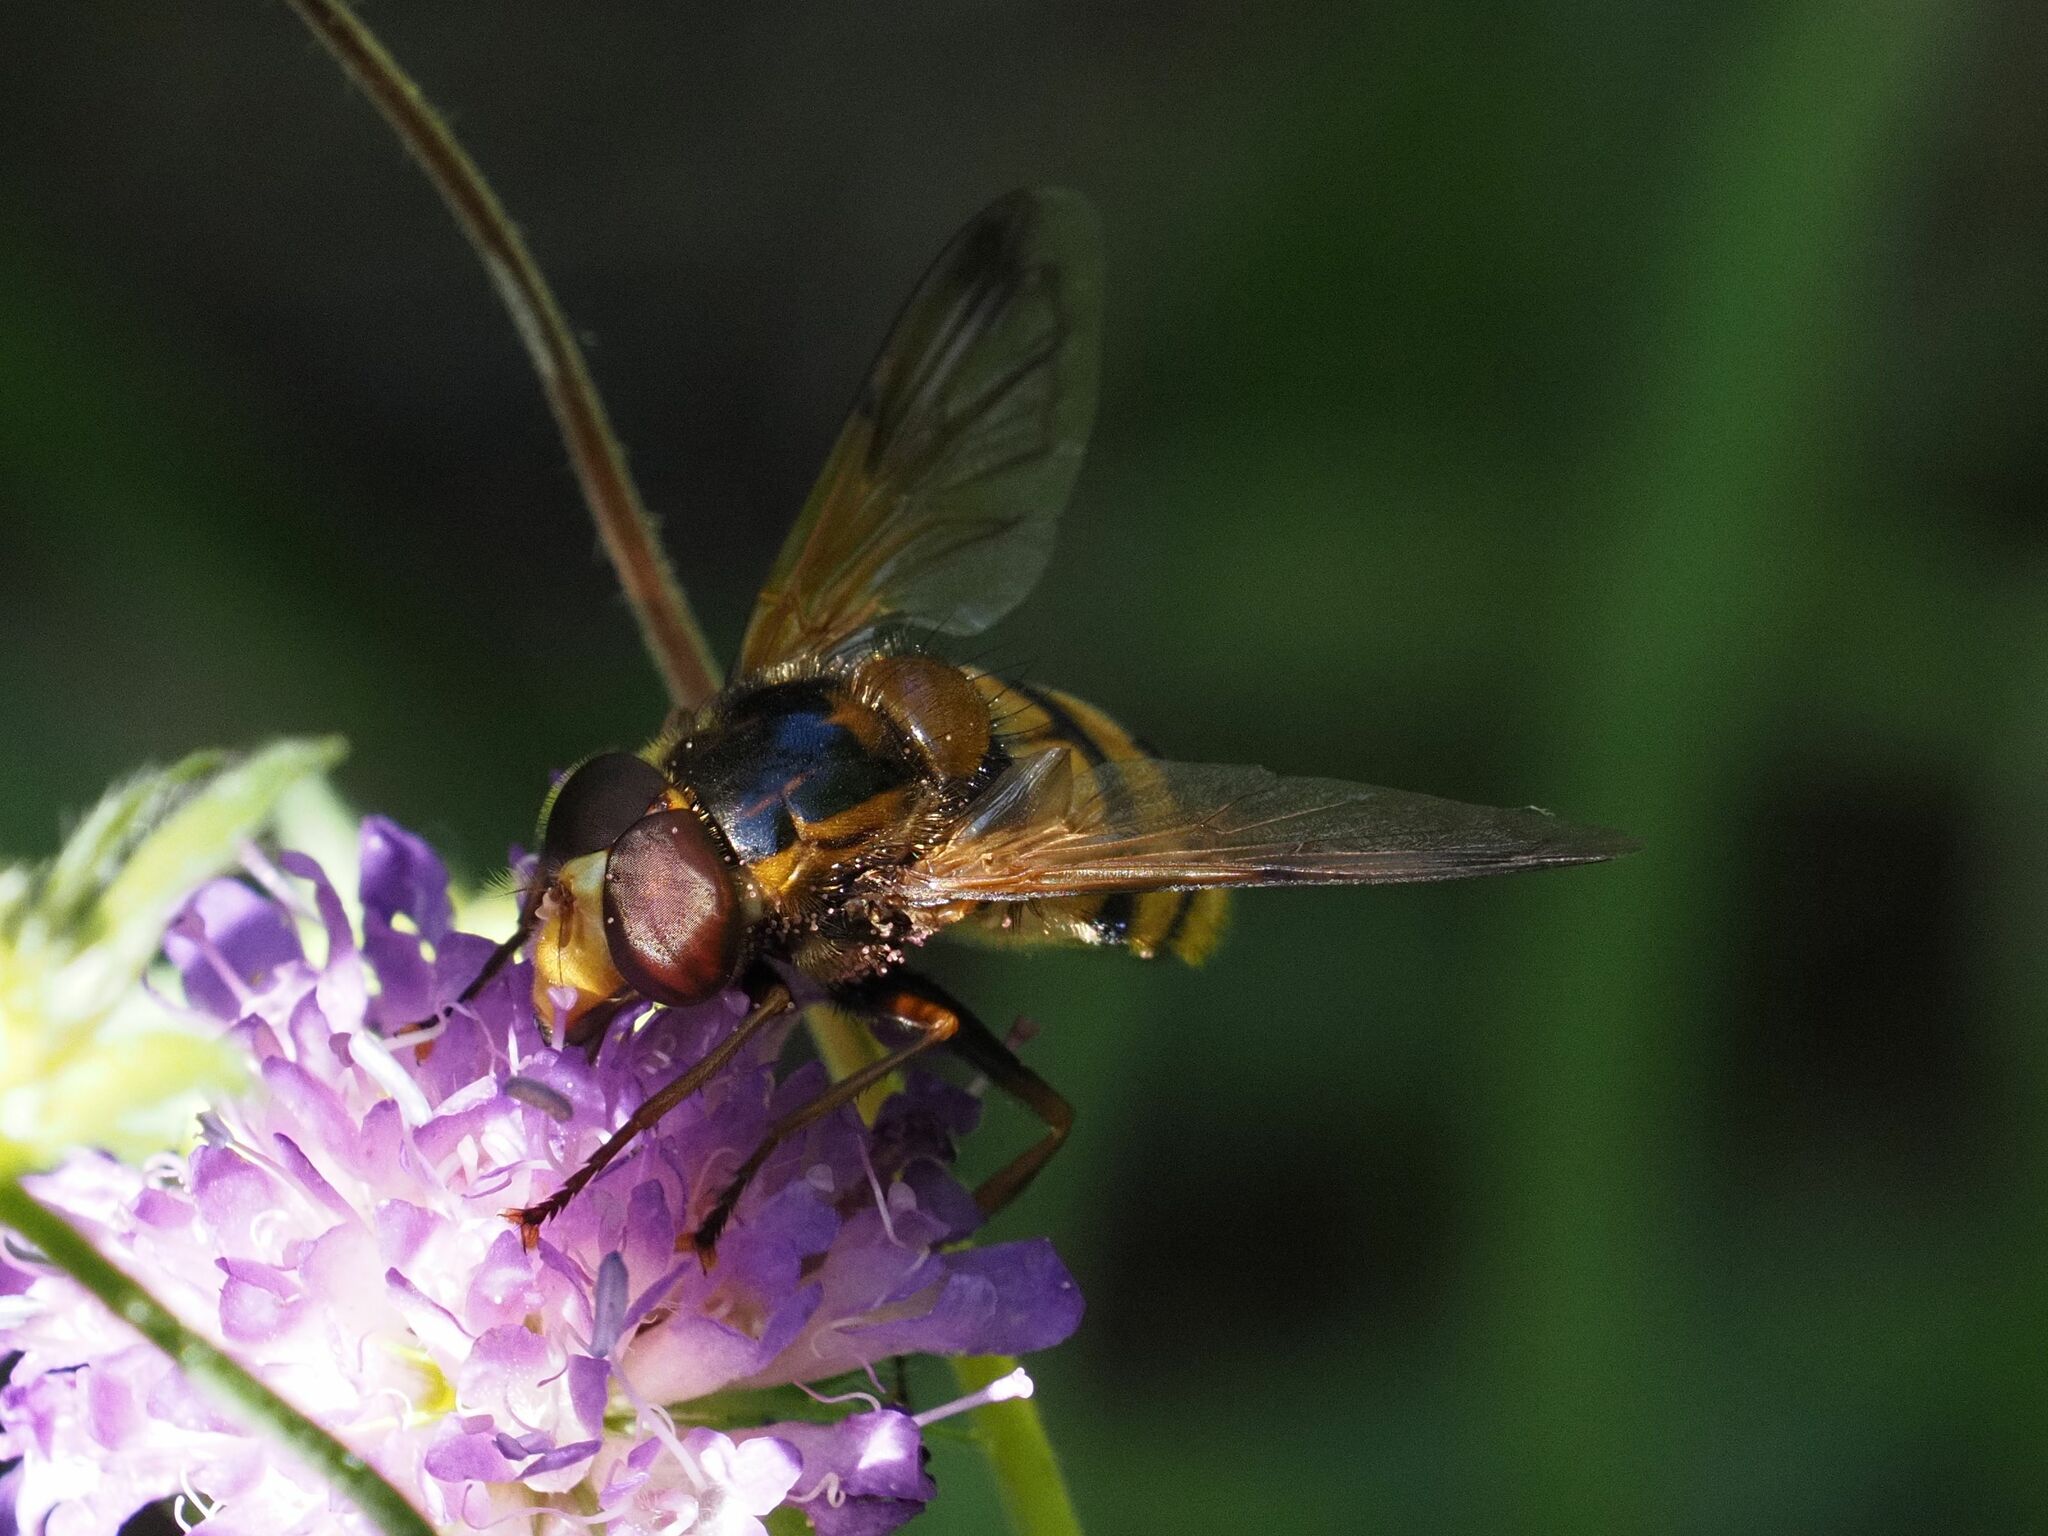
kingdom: Animalia
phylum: Arthropoda
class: Insecta
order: Diptera
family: Syrphidae
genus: Volucella
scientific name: Volucella inanis
